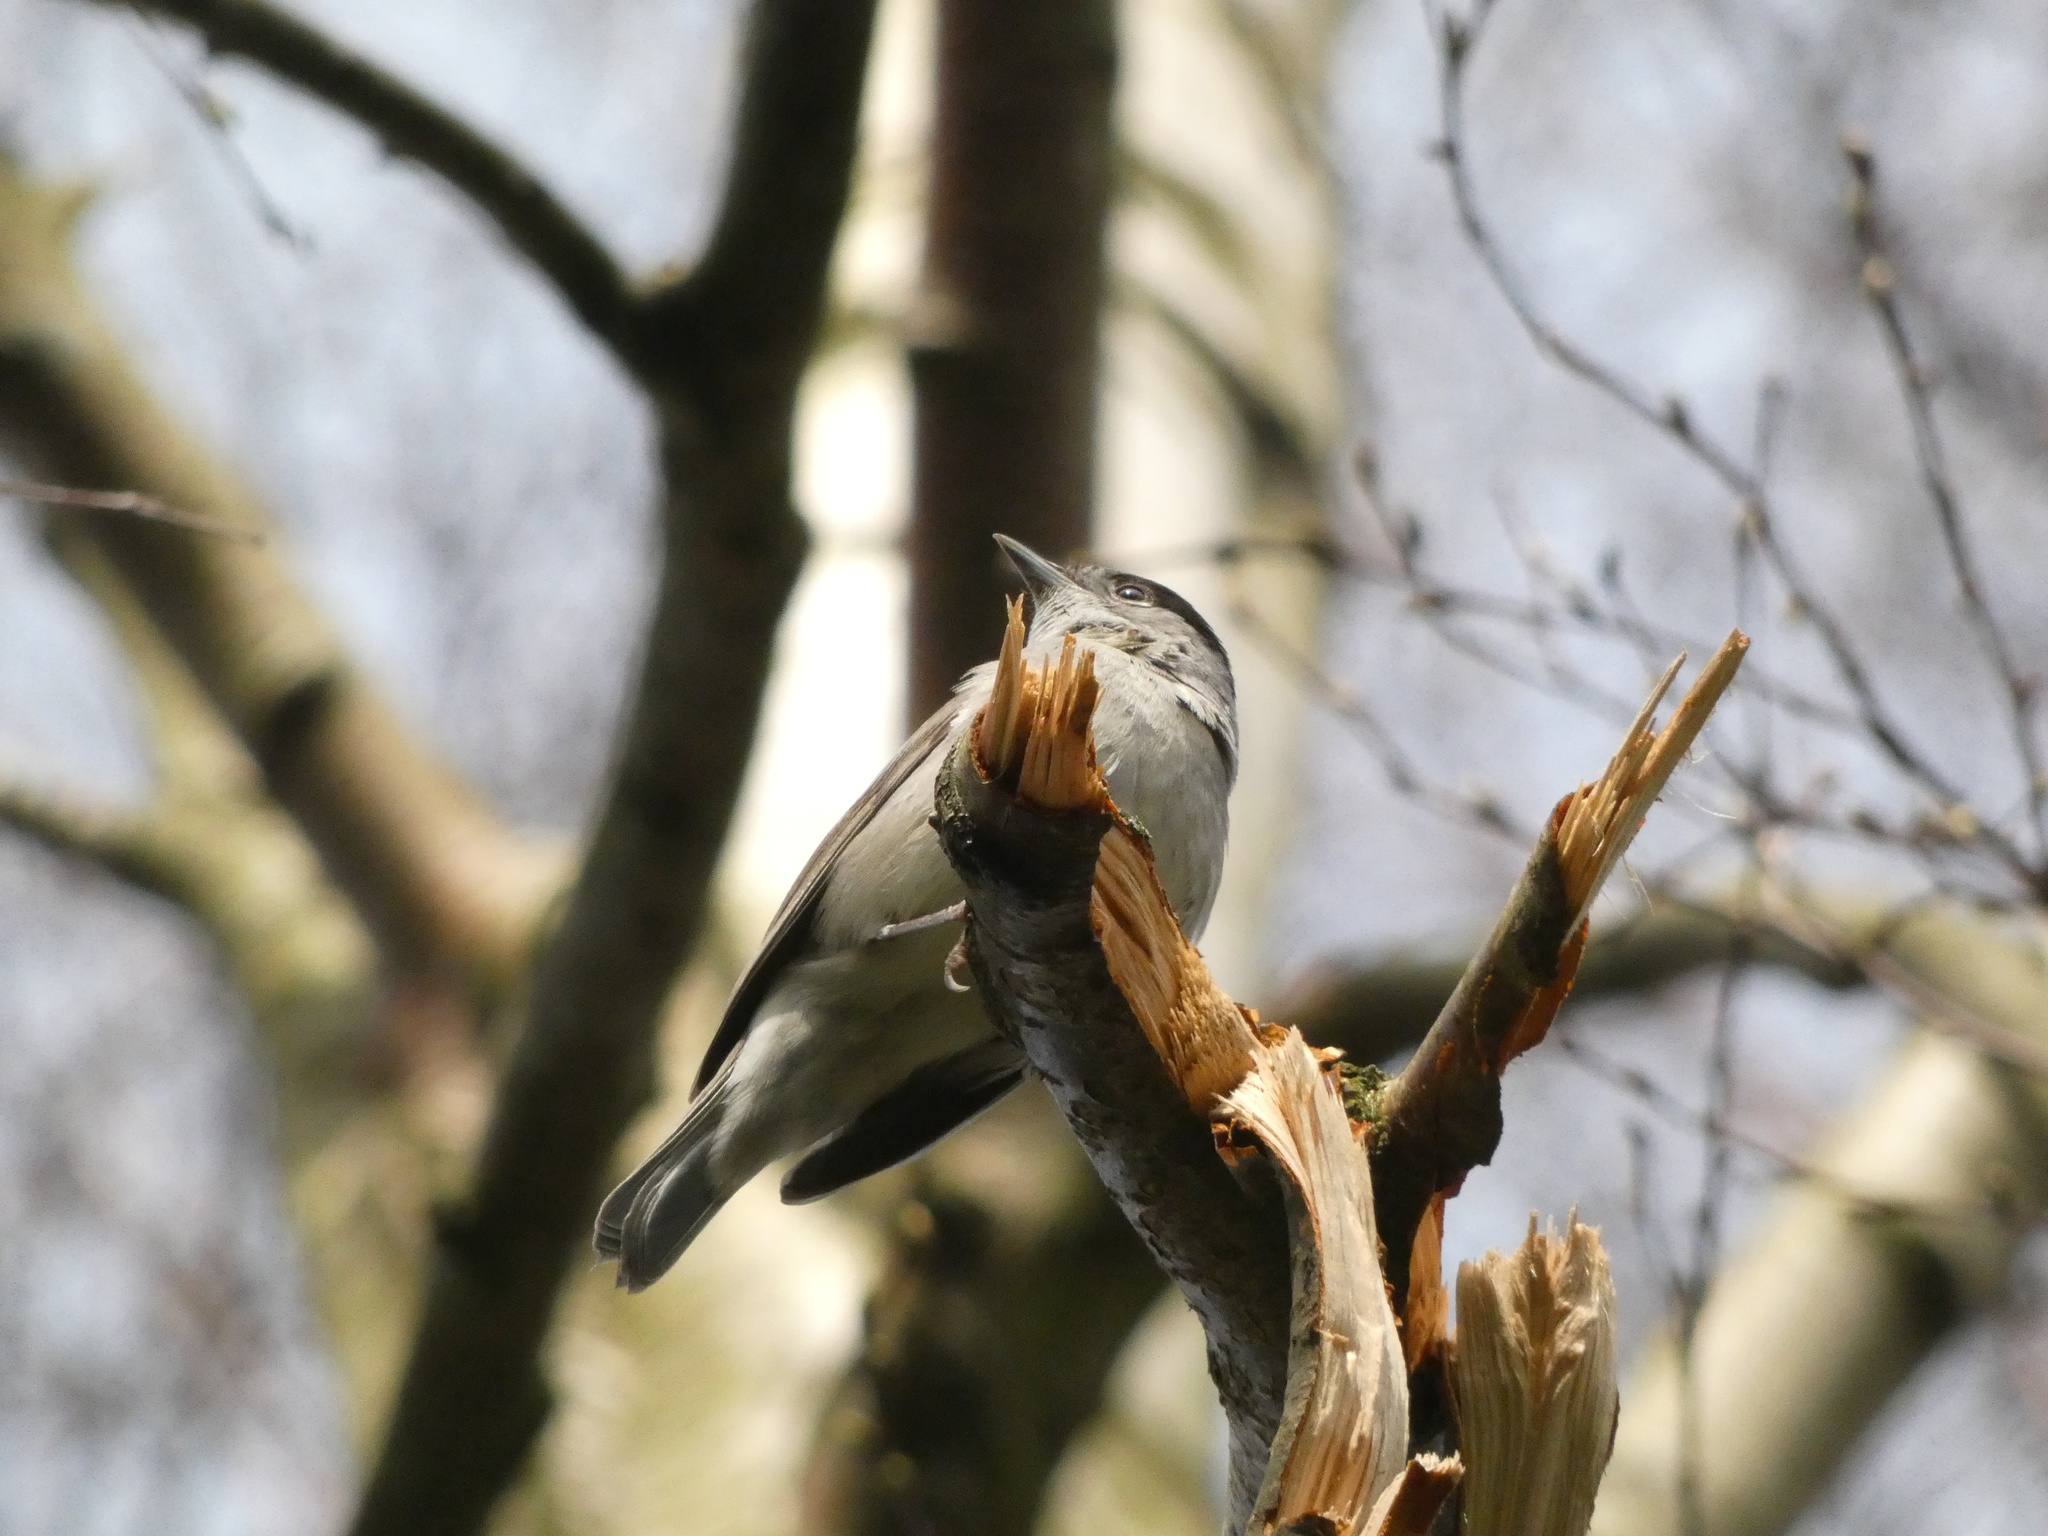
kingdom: Animalia
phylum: Chordata
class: Aves
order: Passeriformes
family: Sylviidae
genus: Sylvia
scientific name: Sylvia atricapilla
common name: Eurasian blackcap
